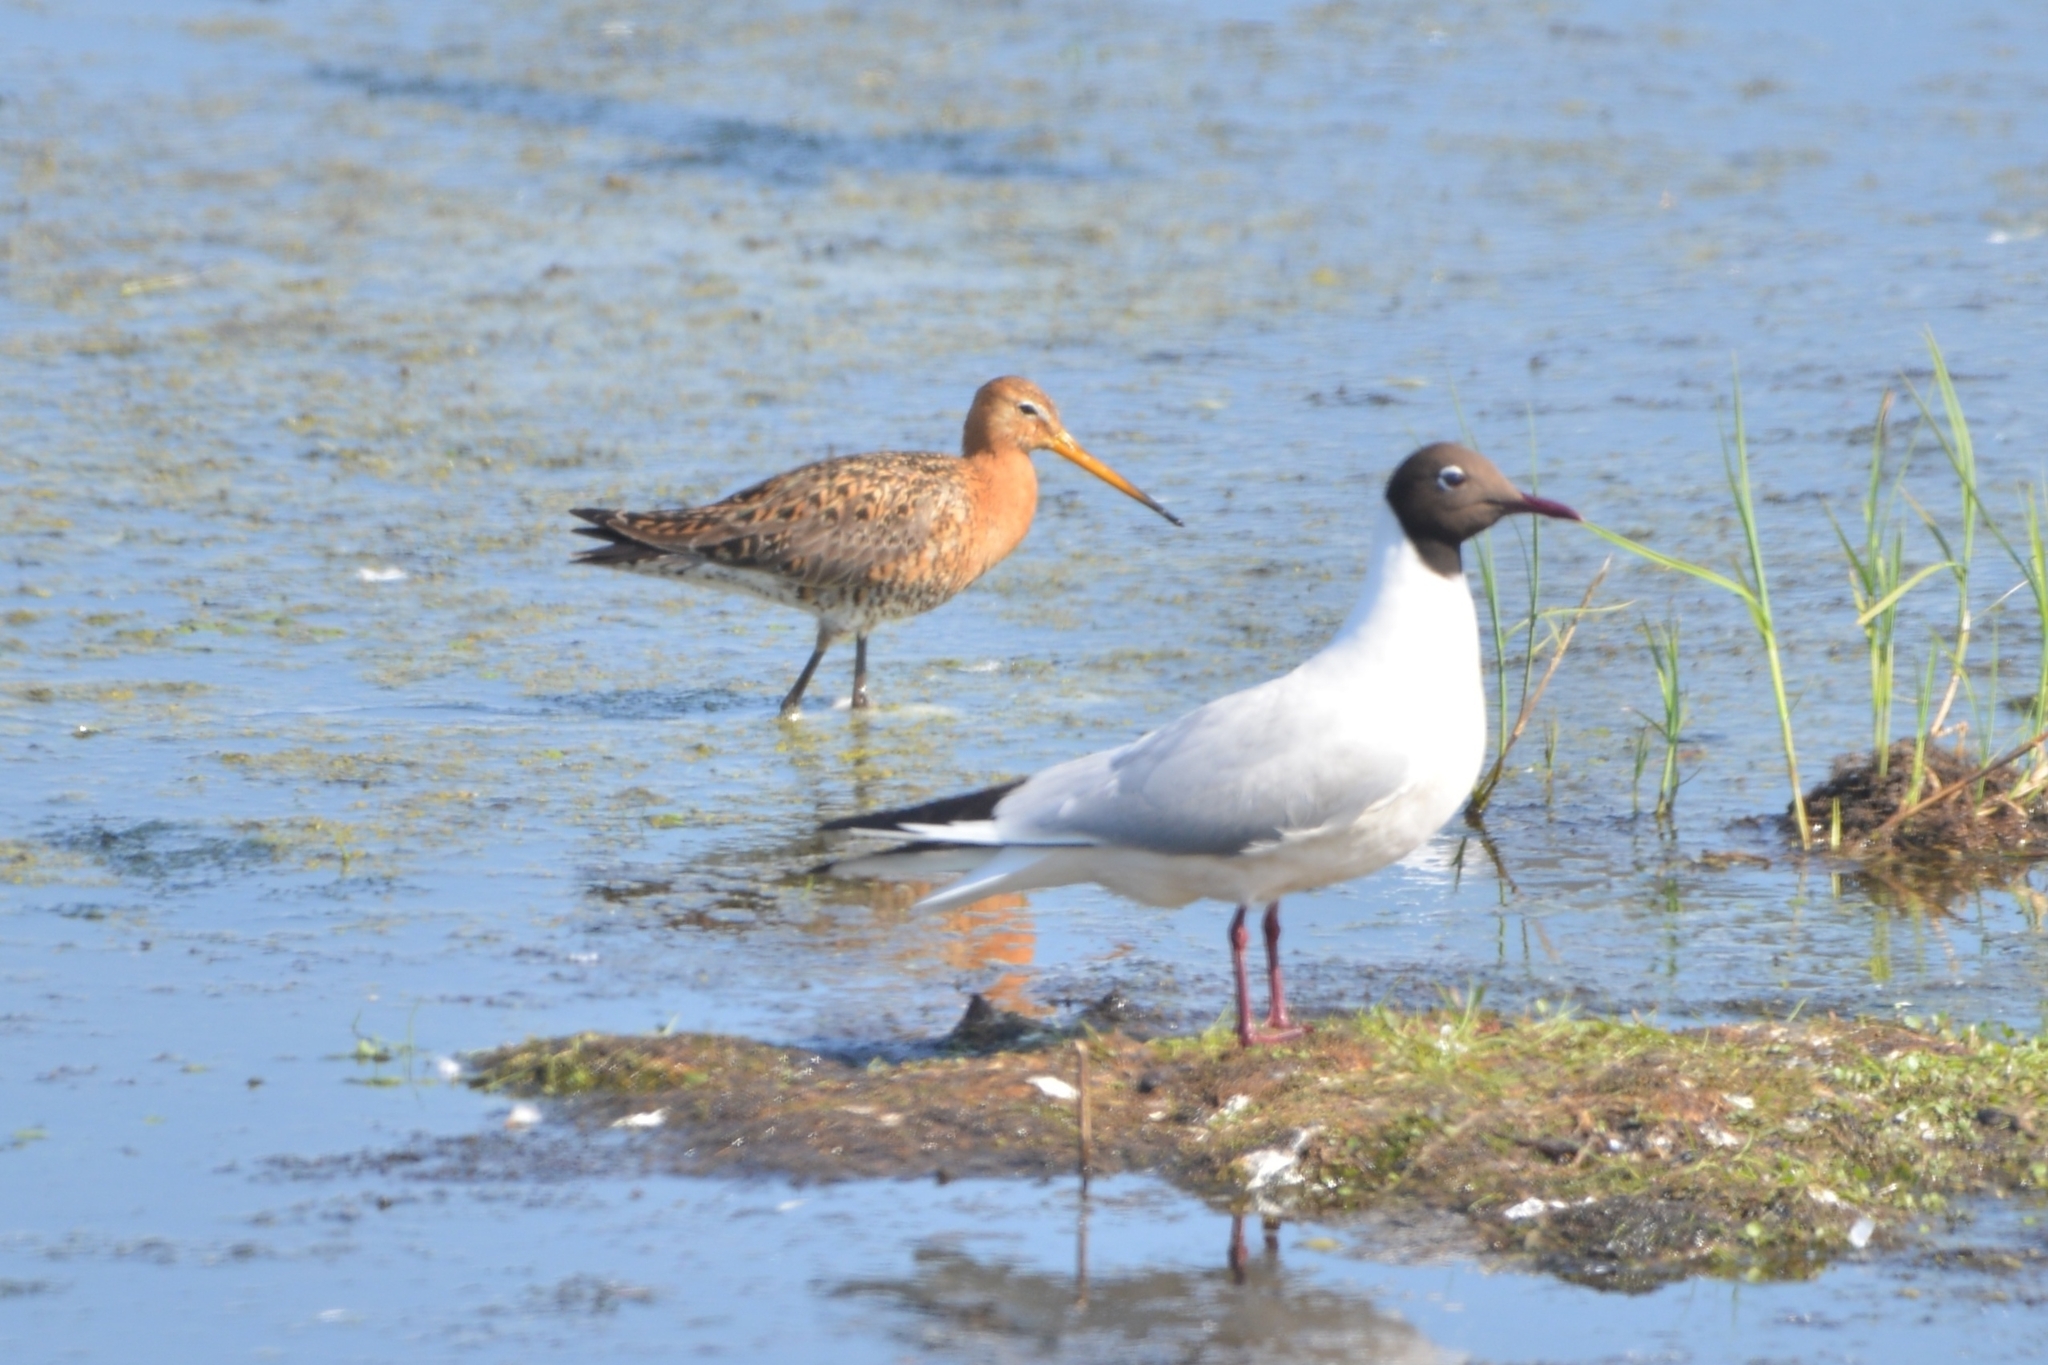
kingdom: Animalia
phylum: Chordata
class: Aves
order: Charadriiformes
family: Laridae
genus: Chroicocephalus
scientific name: Chroicocephalus ridibundus
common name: Black-headed gull
